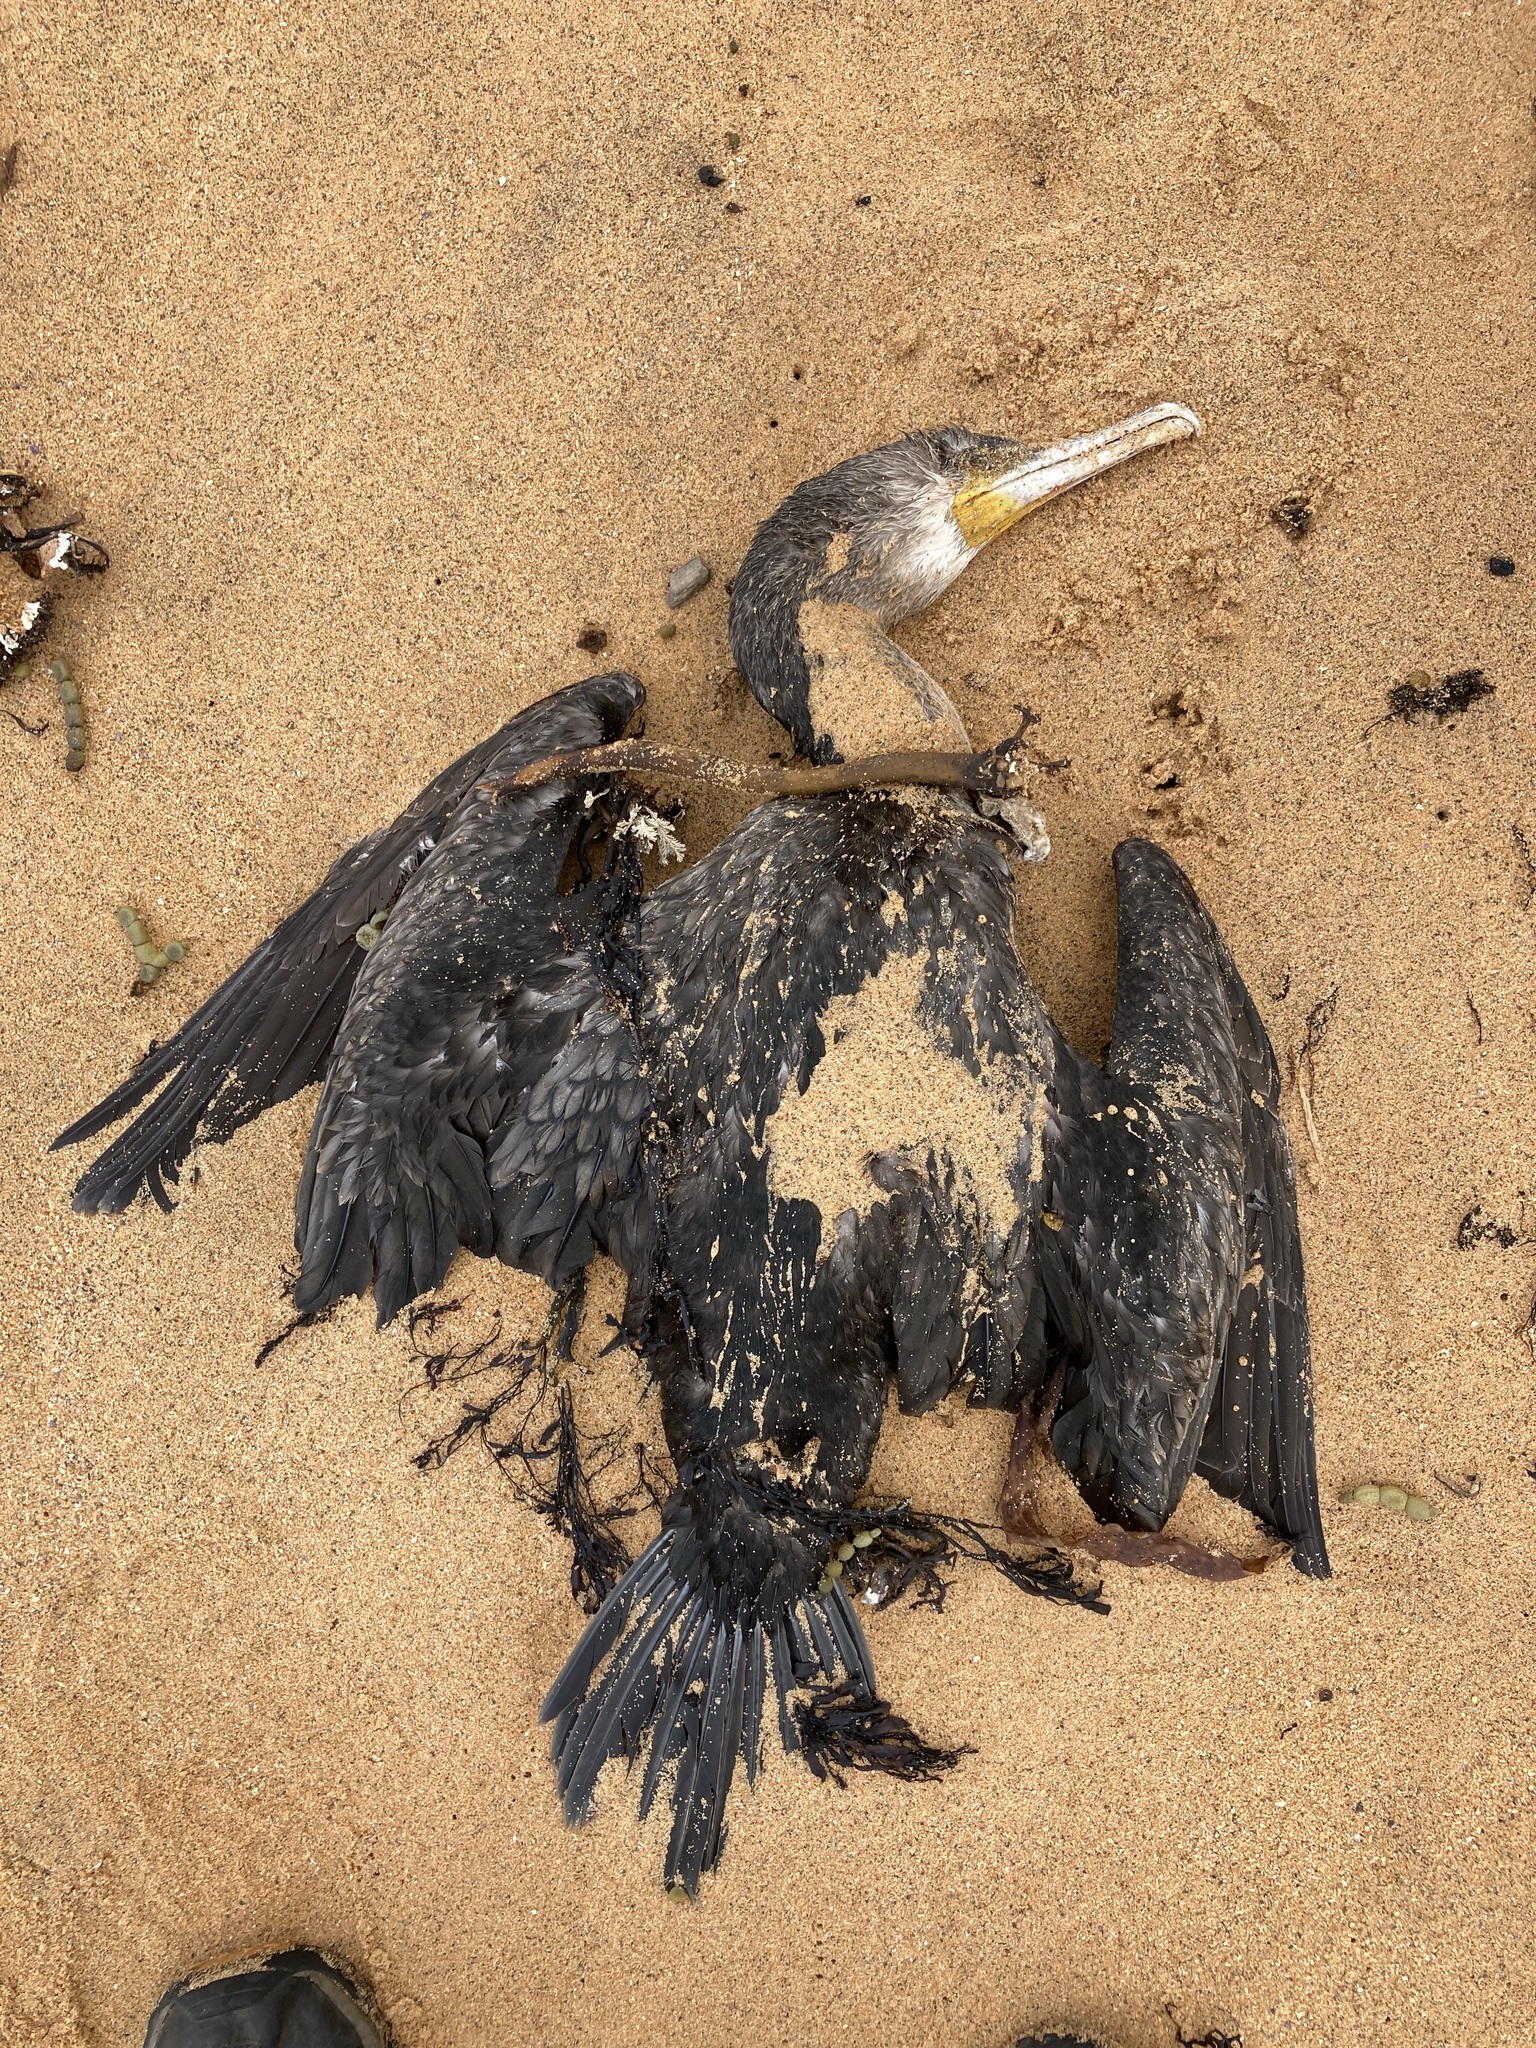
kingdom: Animalia
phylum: Chordata
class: Aves
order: Suliformes
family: Phalacrocoracidae
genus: Phalacrocorax
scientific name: Phalacrocorax carbo
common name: Great cormorant
